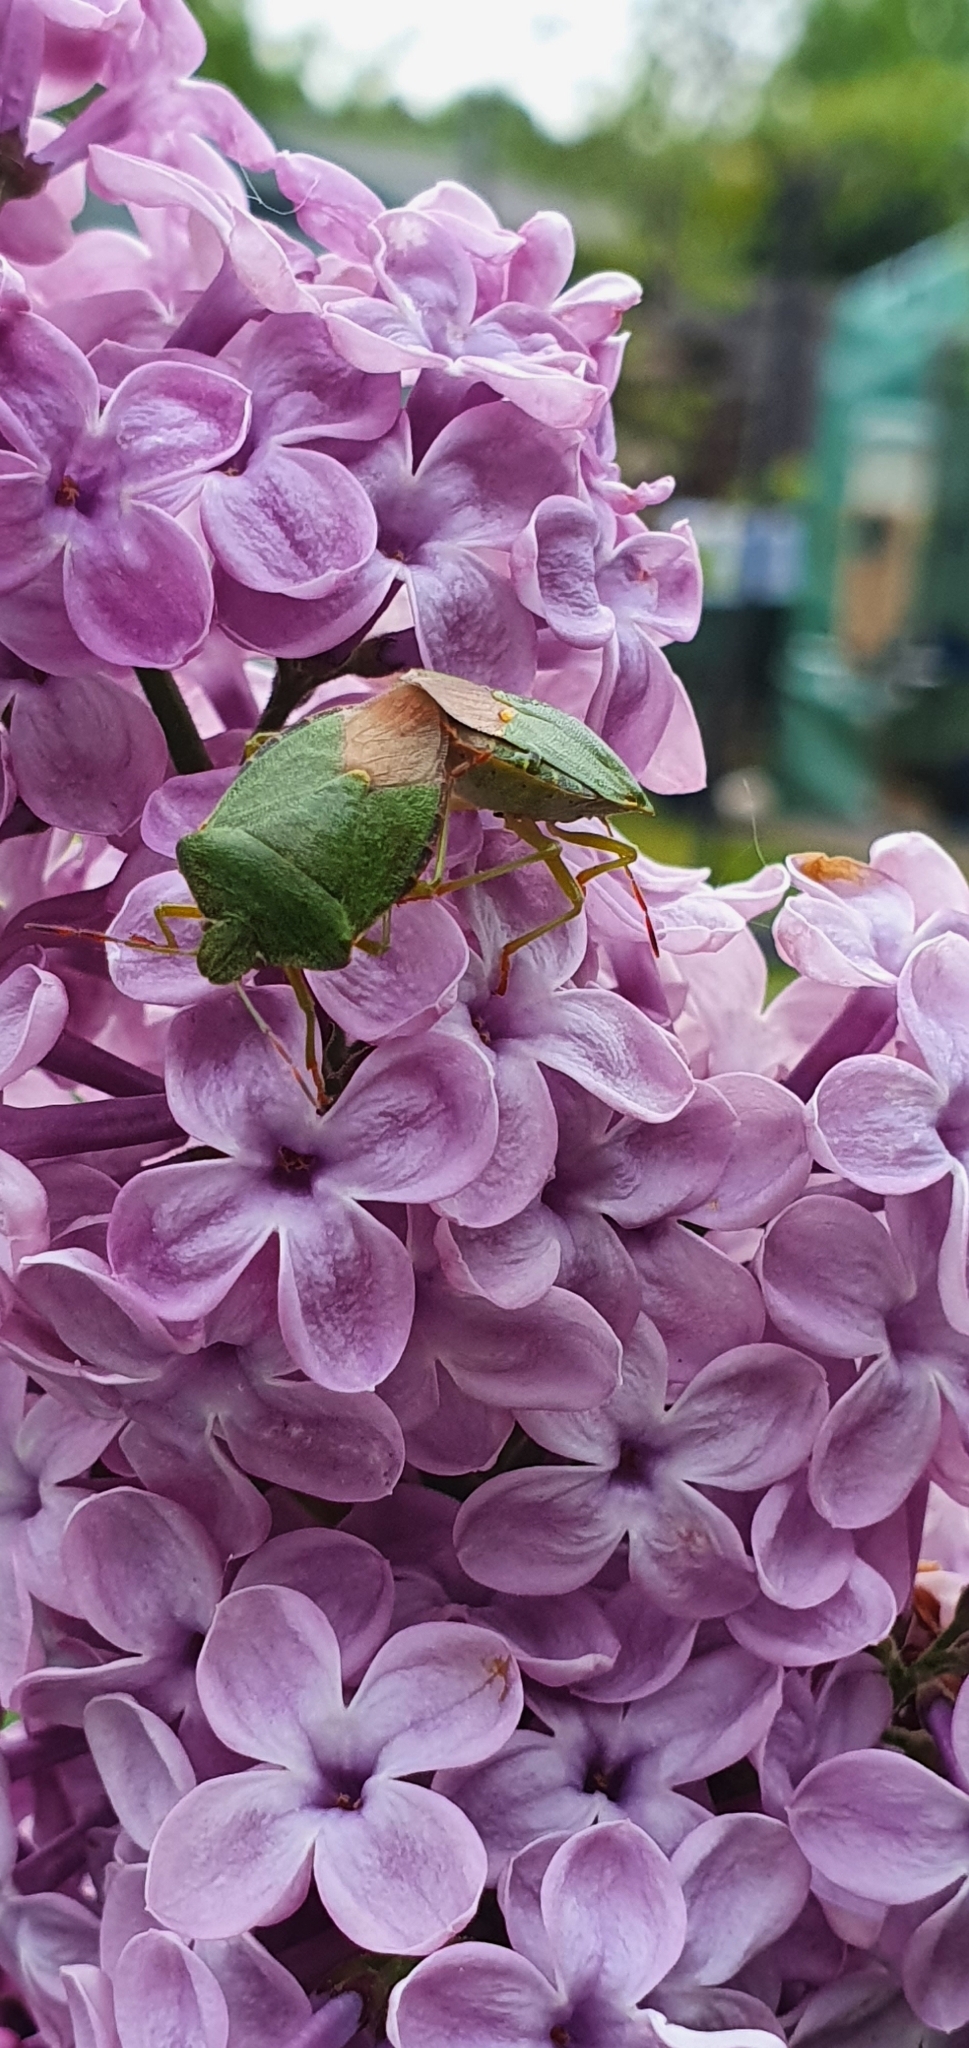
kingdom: Animalia
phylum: Arthropoda
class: Insecta
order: Hemiptera
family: Pentatomidae
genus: Palomena
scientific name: Palomena prasina
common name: Green shieldbug
